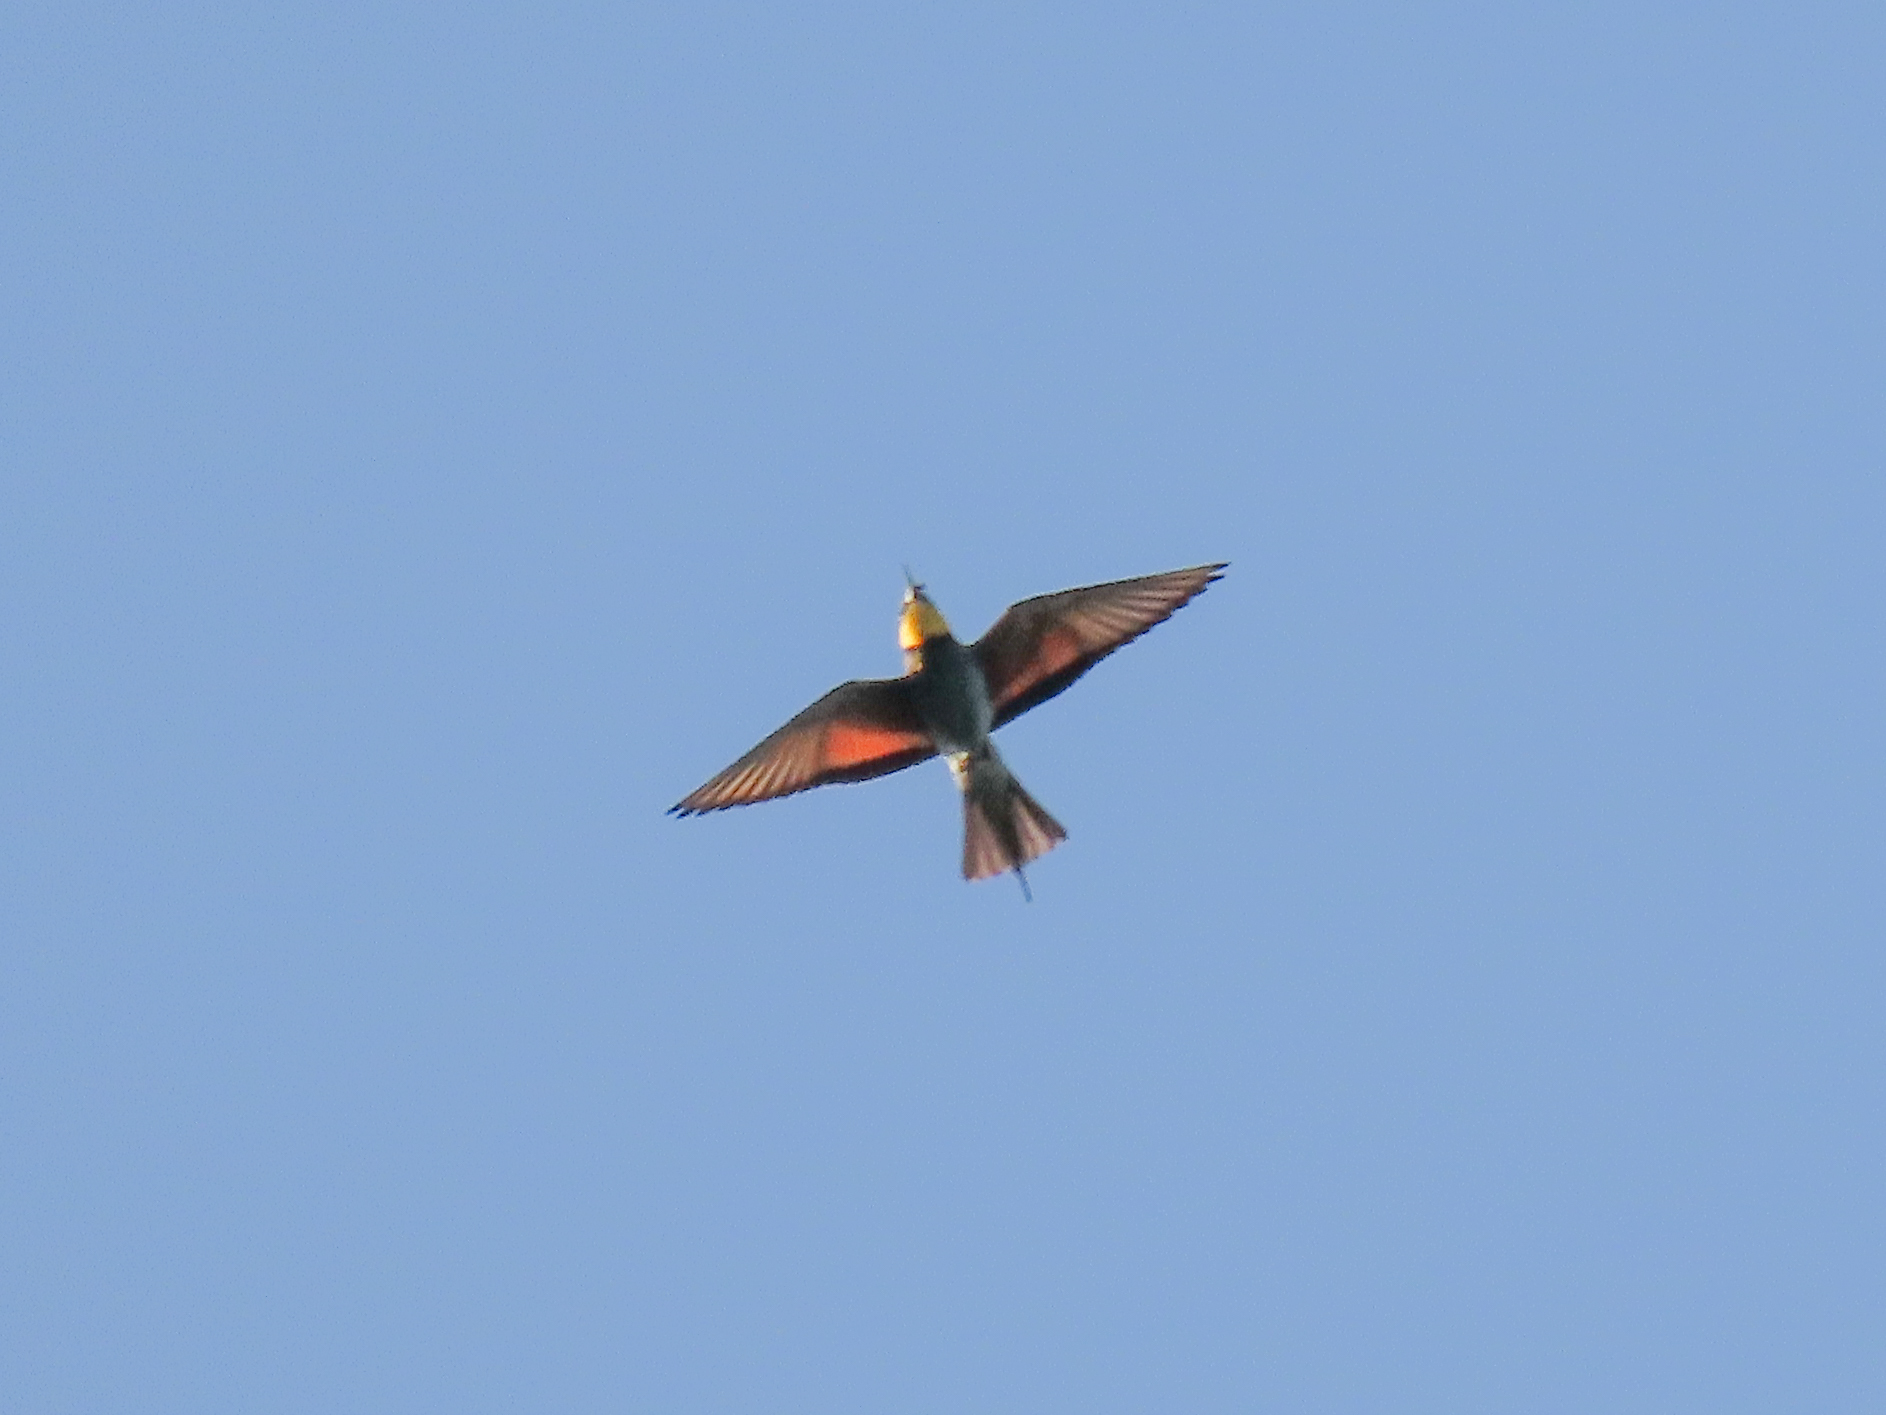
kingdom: Animalia
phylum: Chordata
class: Aves
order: Coraciiformes
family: Meropidae
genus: Merops
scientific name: Merops apiaster
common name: European bee-eater
